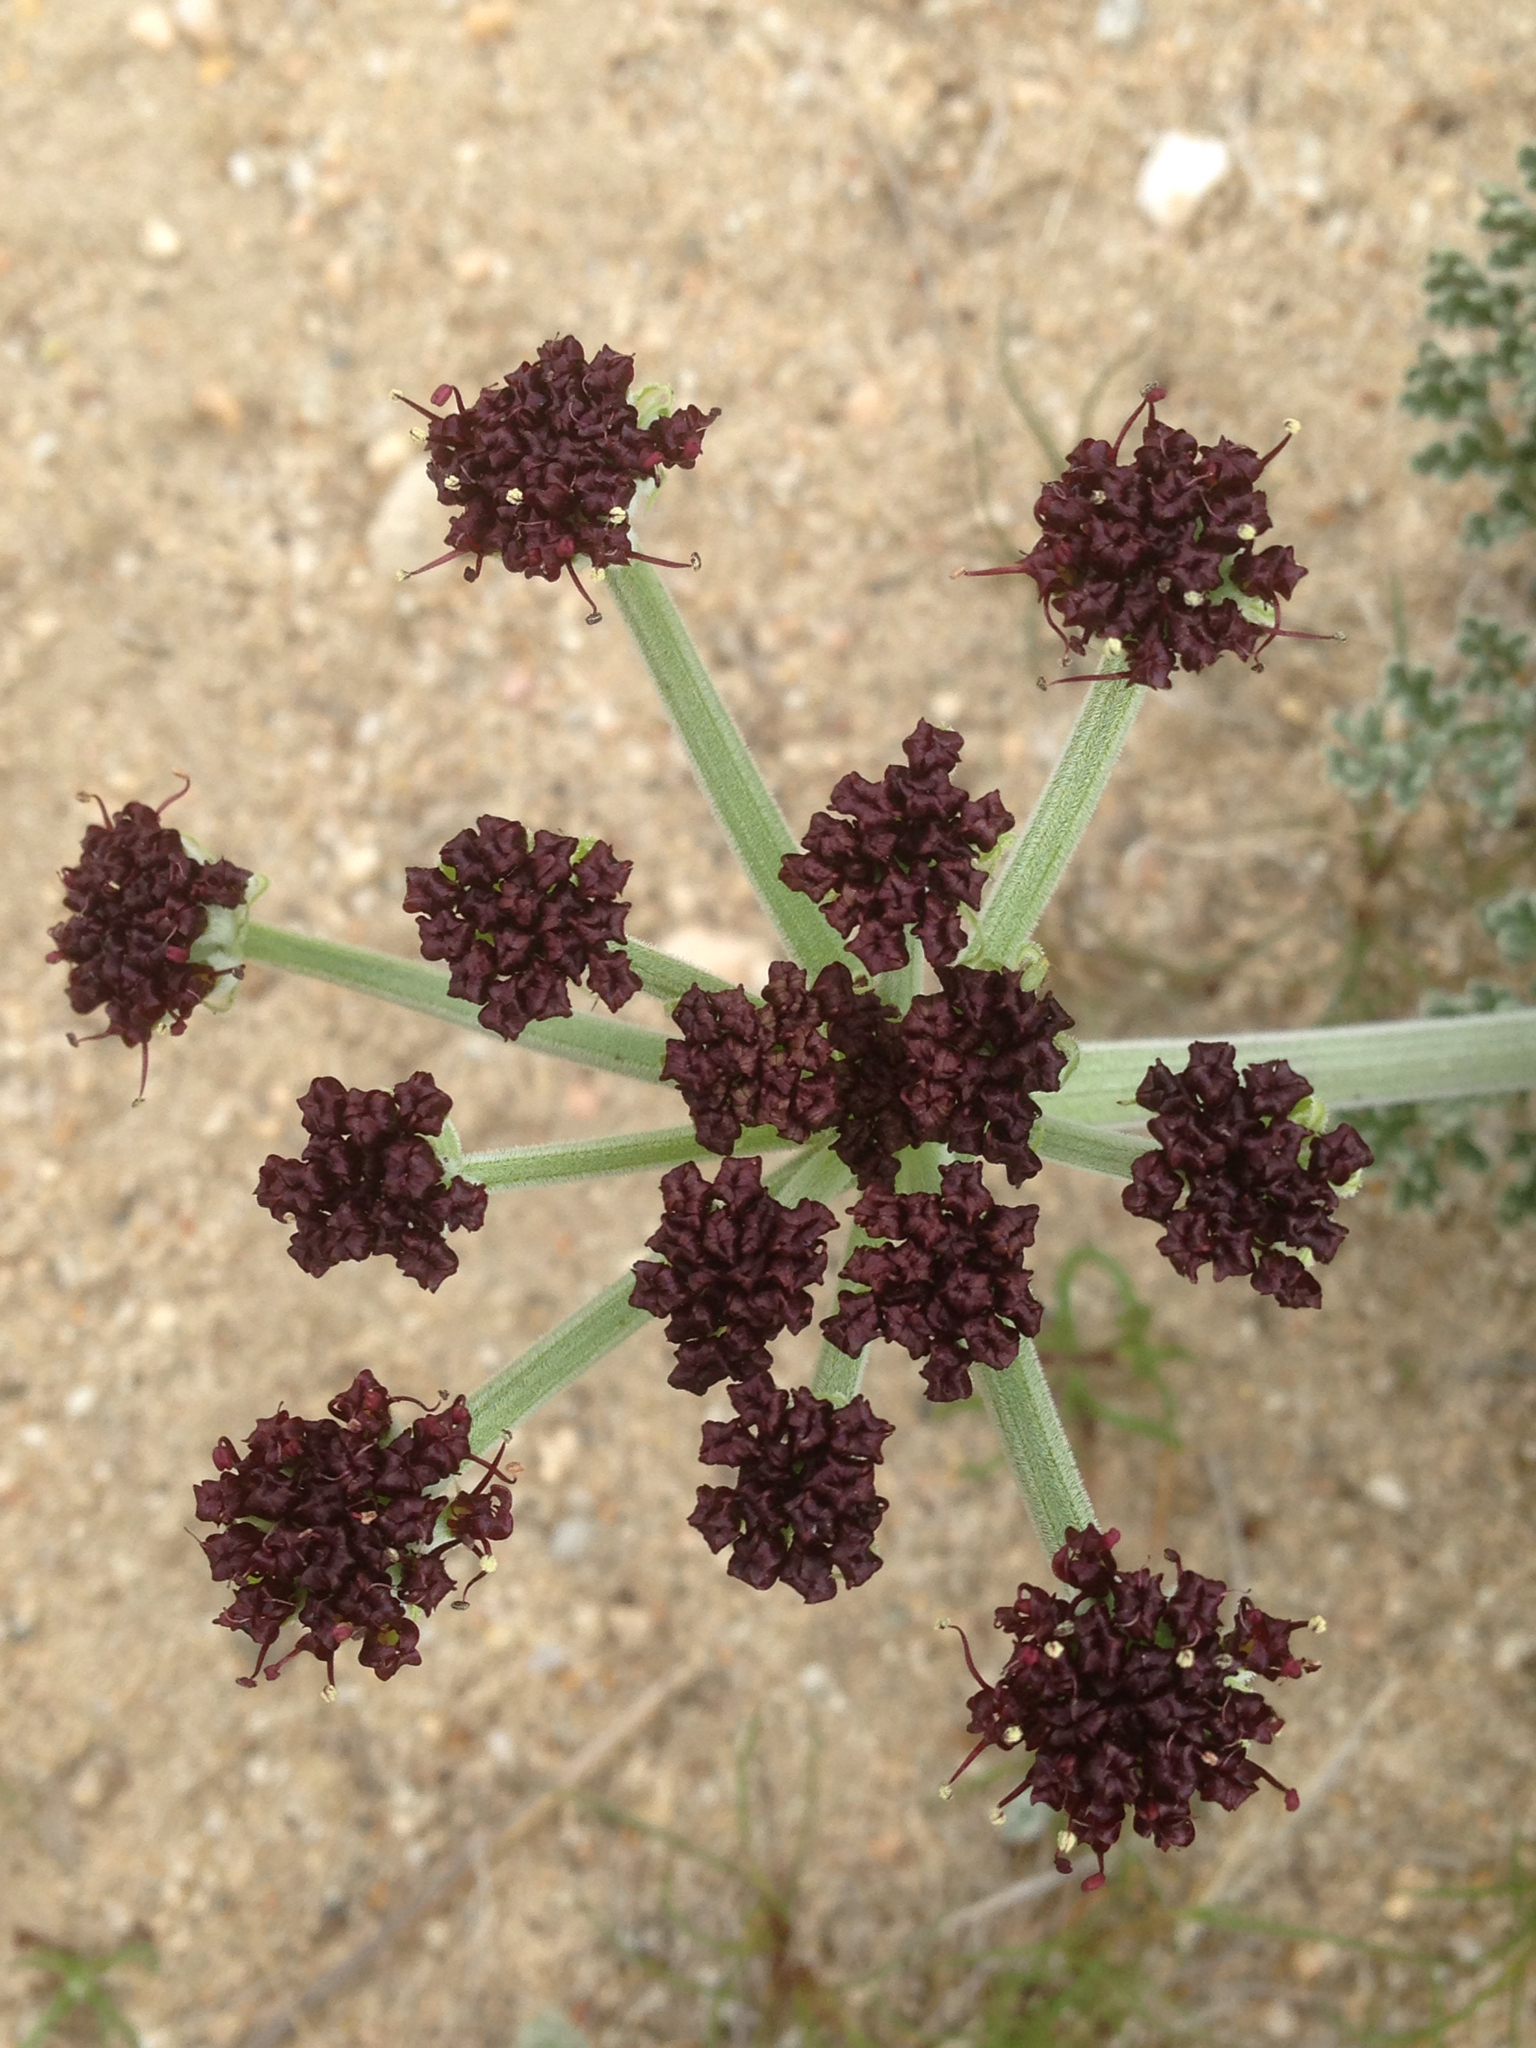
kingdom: Plantae
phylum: Tracheophyta
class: Magnoliopsida
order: Apiales
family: Apiaceae
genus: Lomatium
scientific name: Lomatium mohavense
